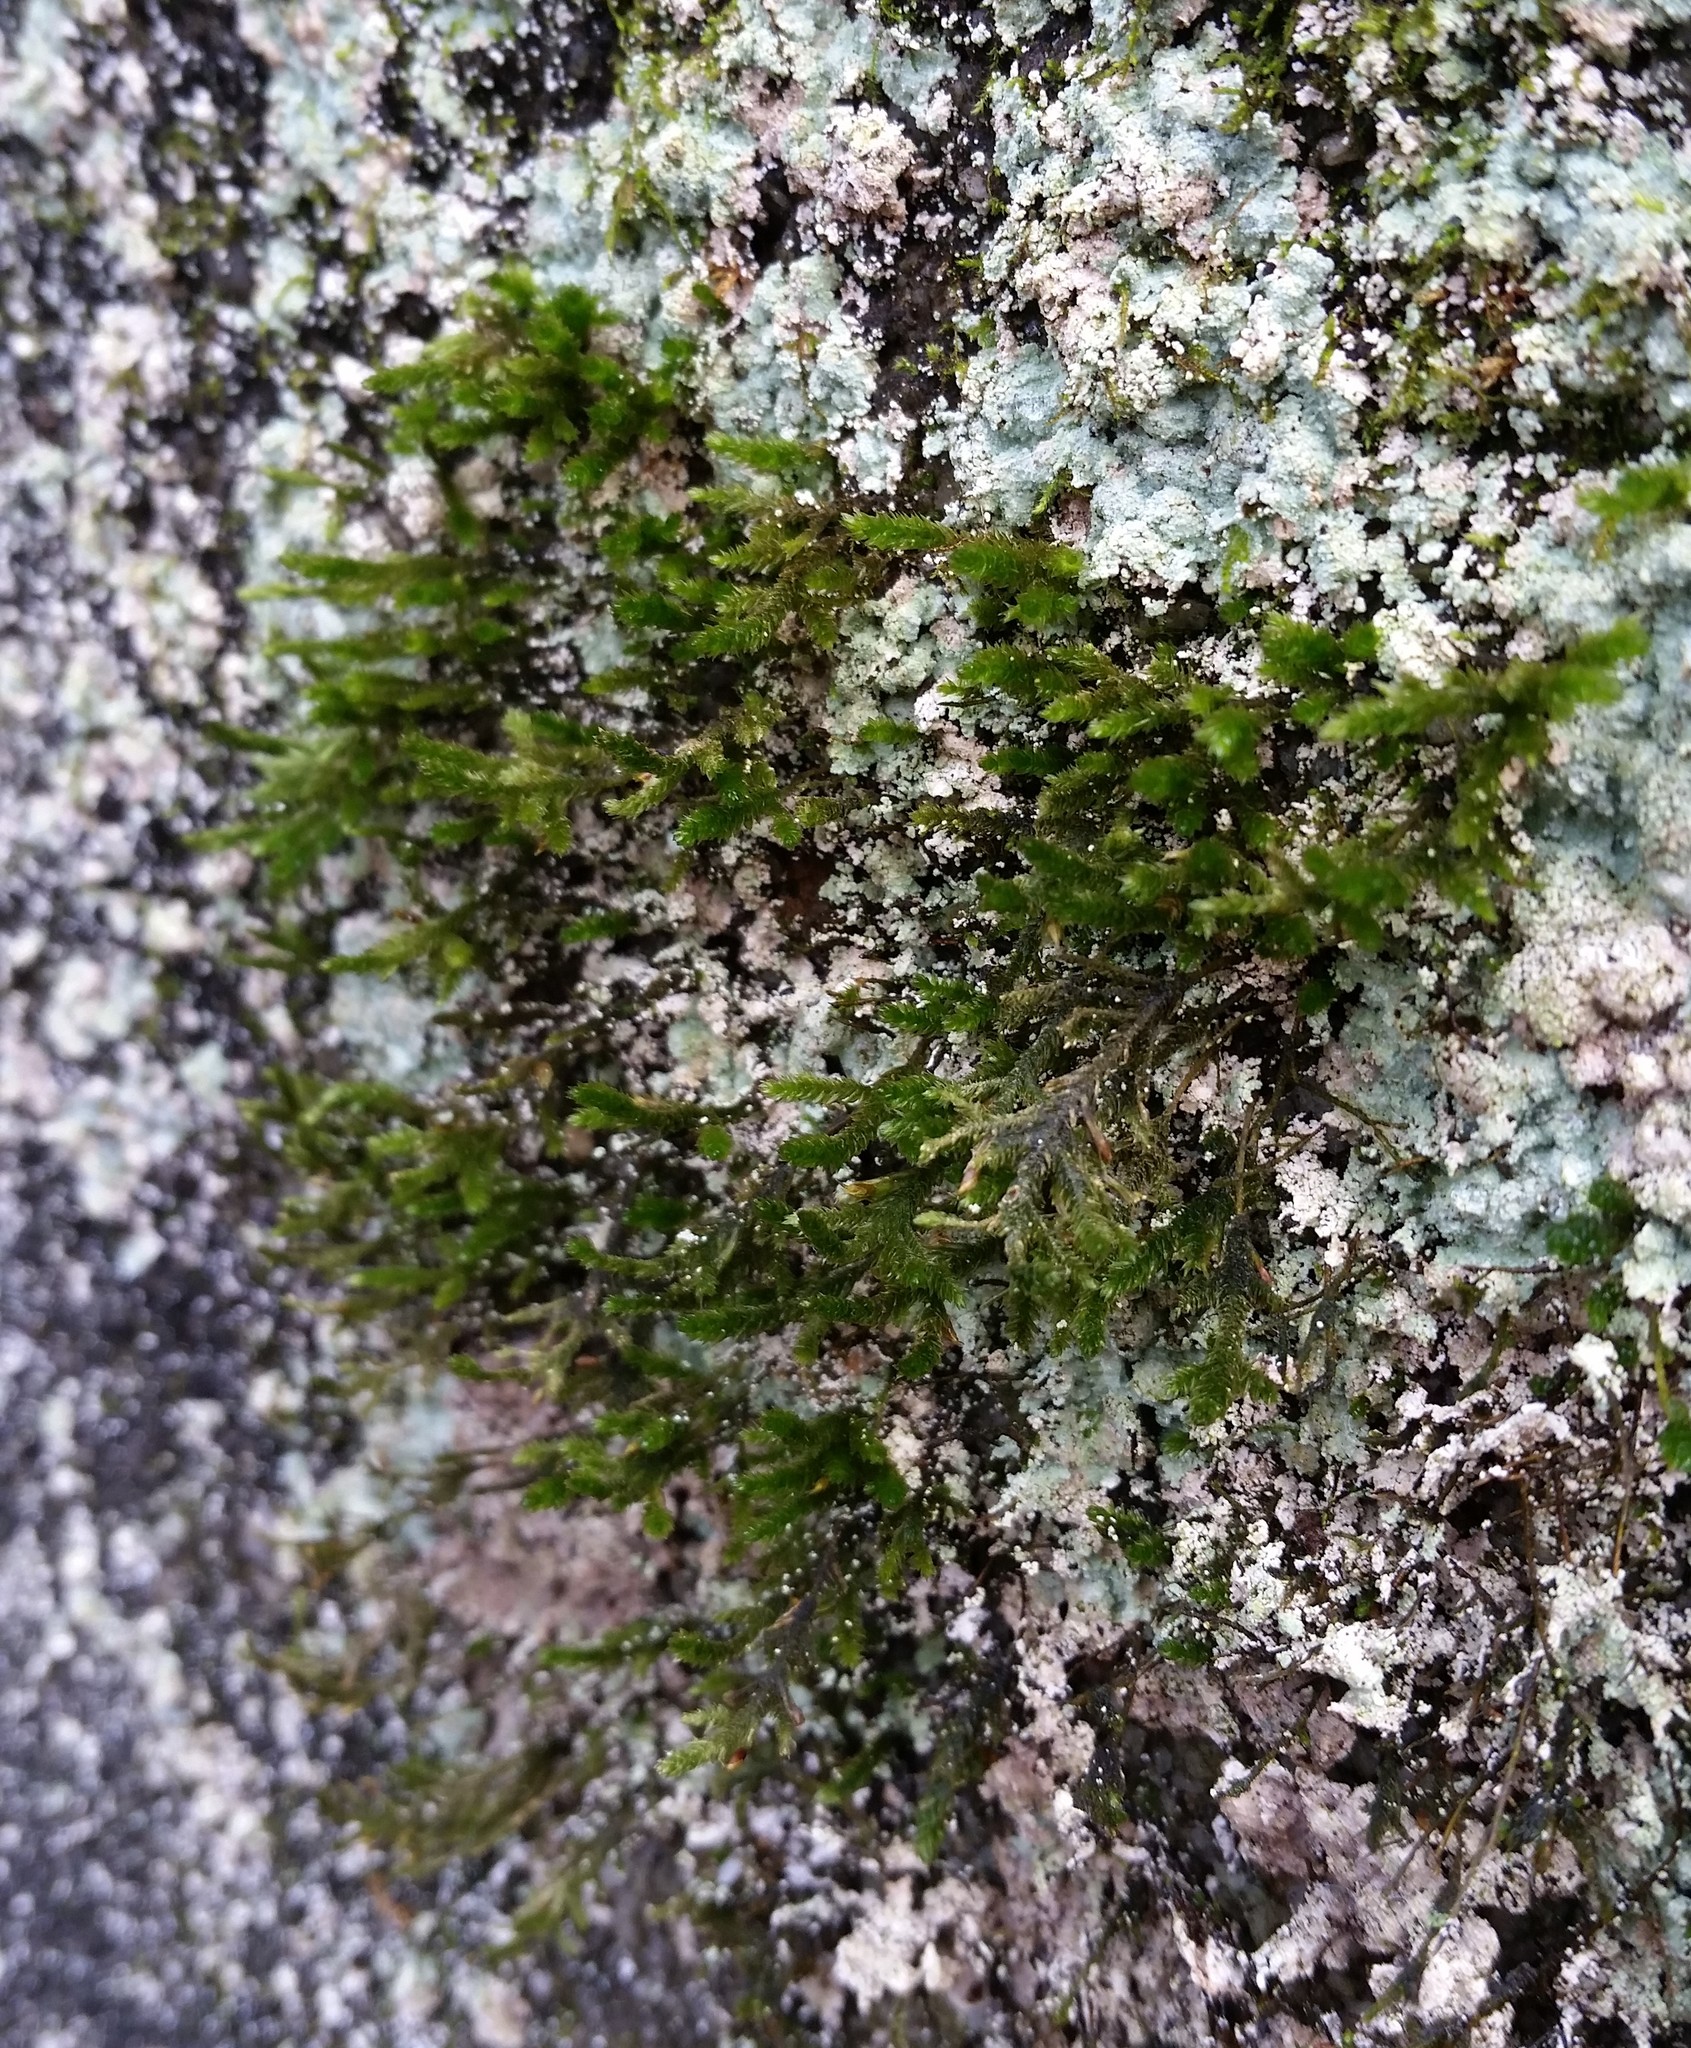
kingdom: Plantae
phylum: Bryophyta
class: Bryopsida
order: Hypnales
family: Neckeraceae
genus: Forsstroemia
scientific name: Forsstroemia trichomitria
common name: Fan moss
